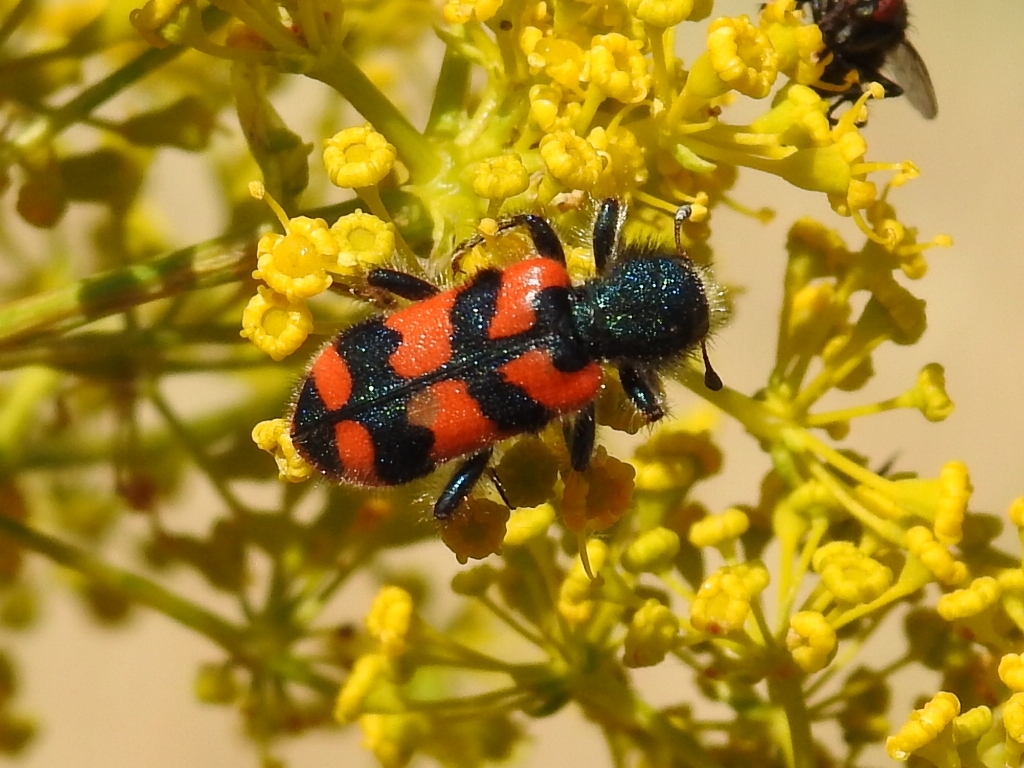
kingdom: Animalia
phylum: Arthropoda
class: Insecta
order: Coleoptera
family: Cleridae
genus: Trichodes
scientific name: Trichodes alvearius
